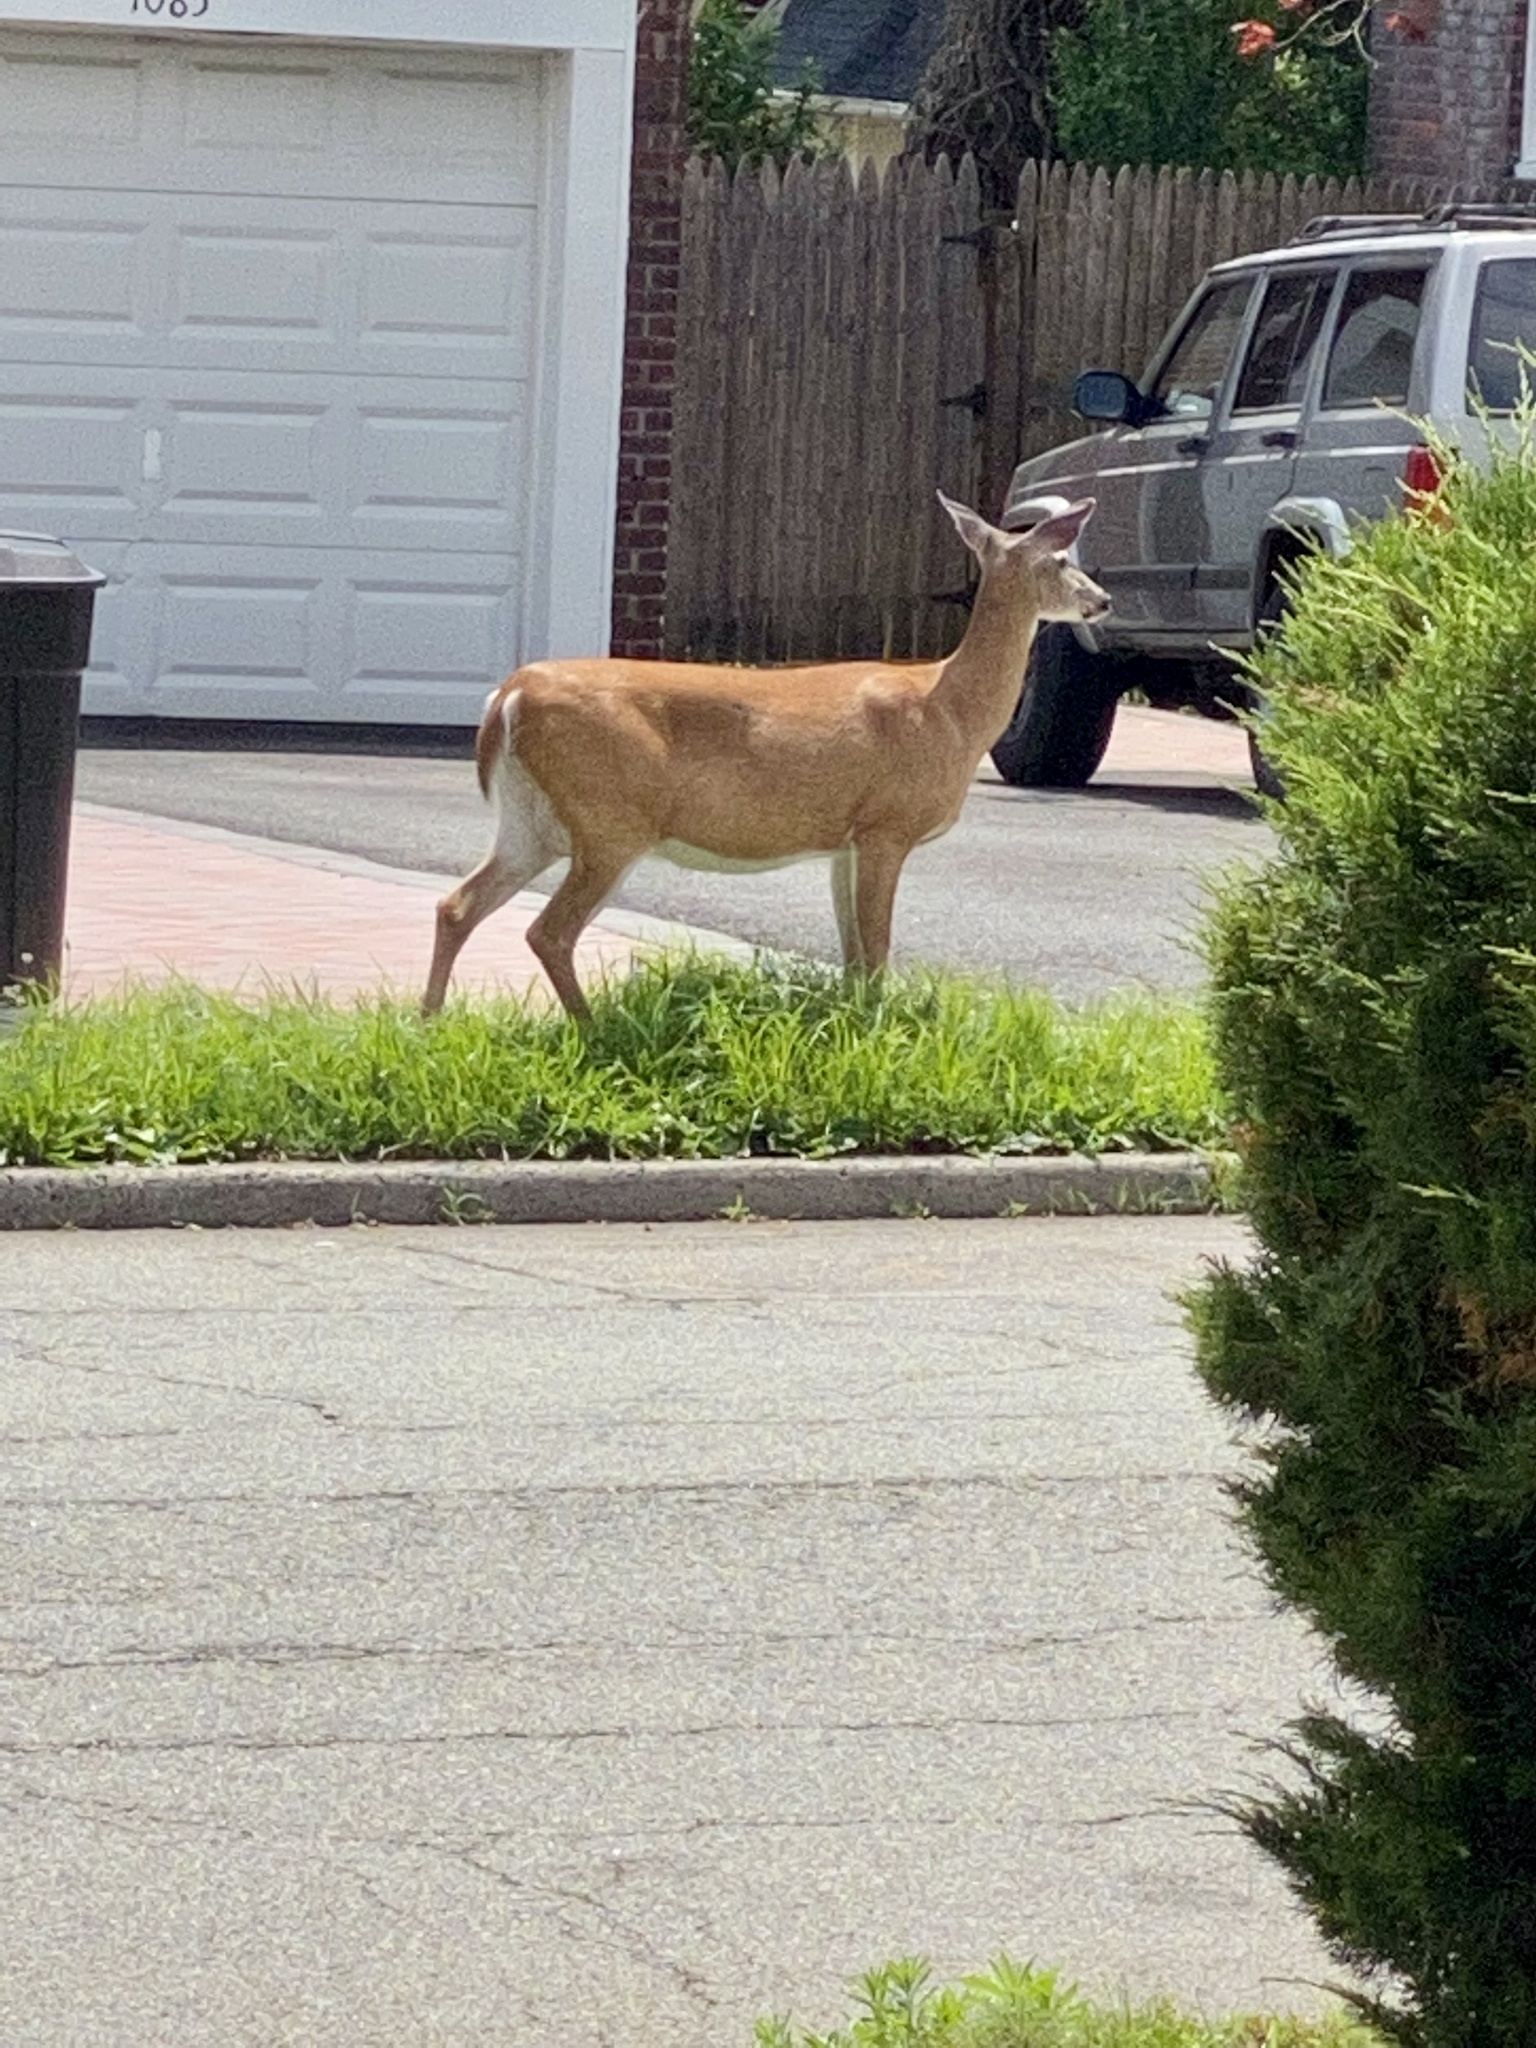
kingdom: Animalia
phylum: Chordata
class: Mammalia
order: Artiodactyla
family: Cervidae
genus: Odocoileus
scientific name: Odocoileus virginianus
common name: White-tailed deer
